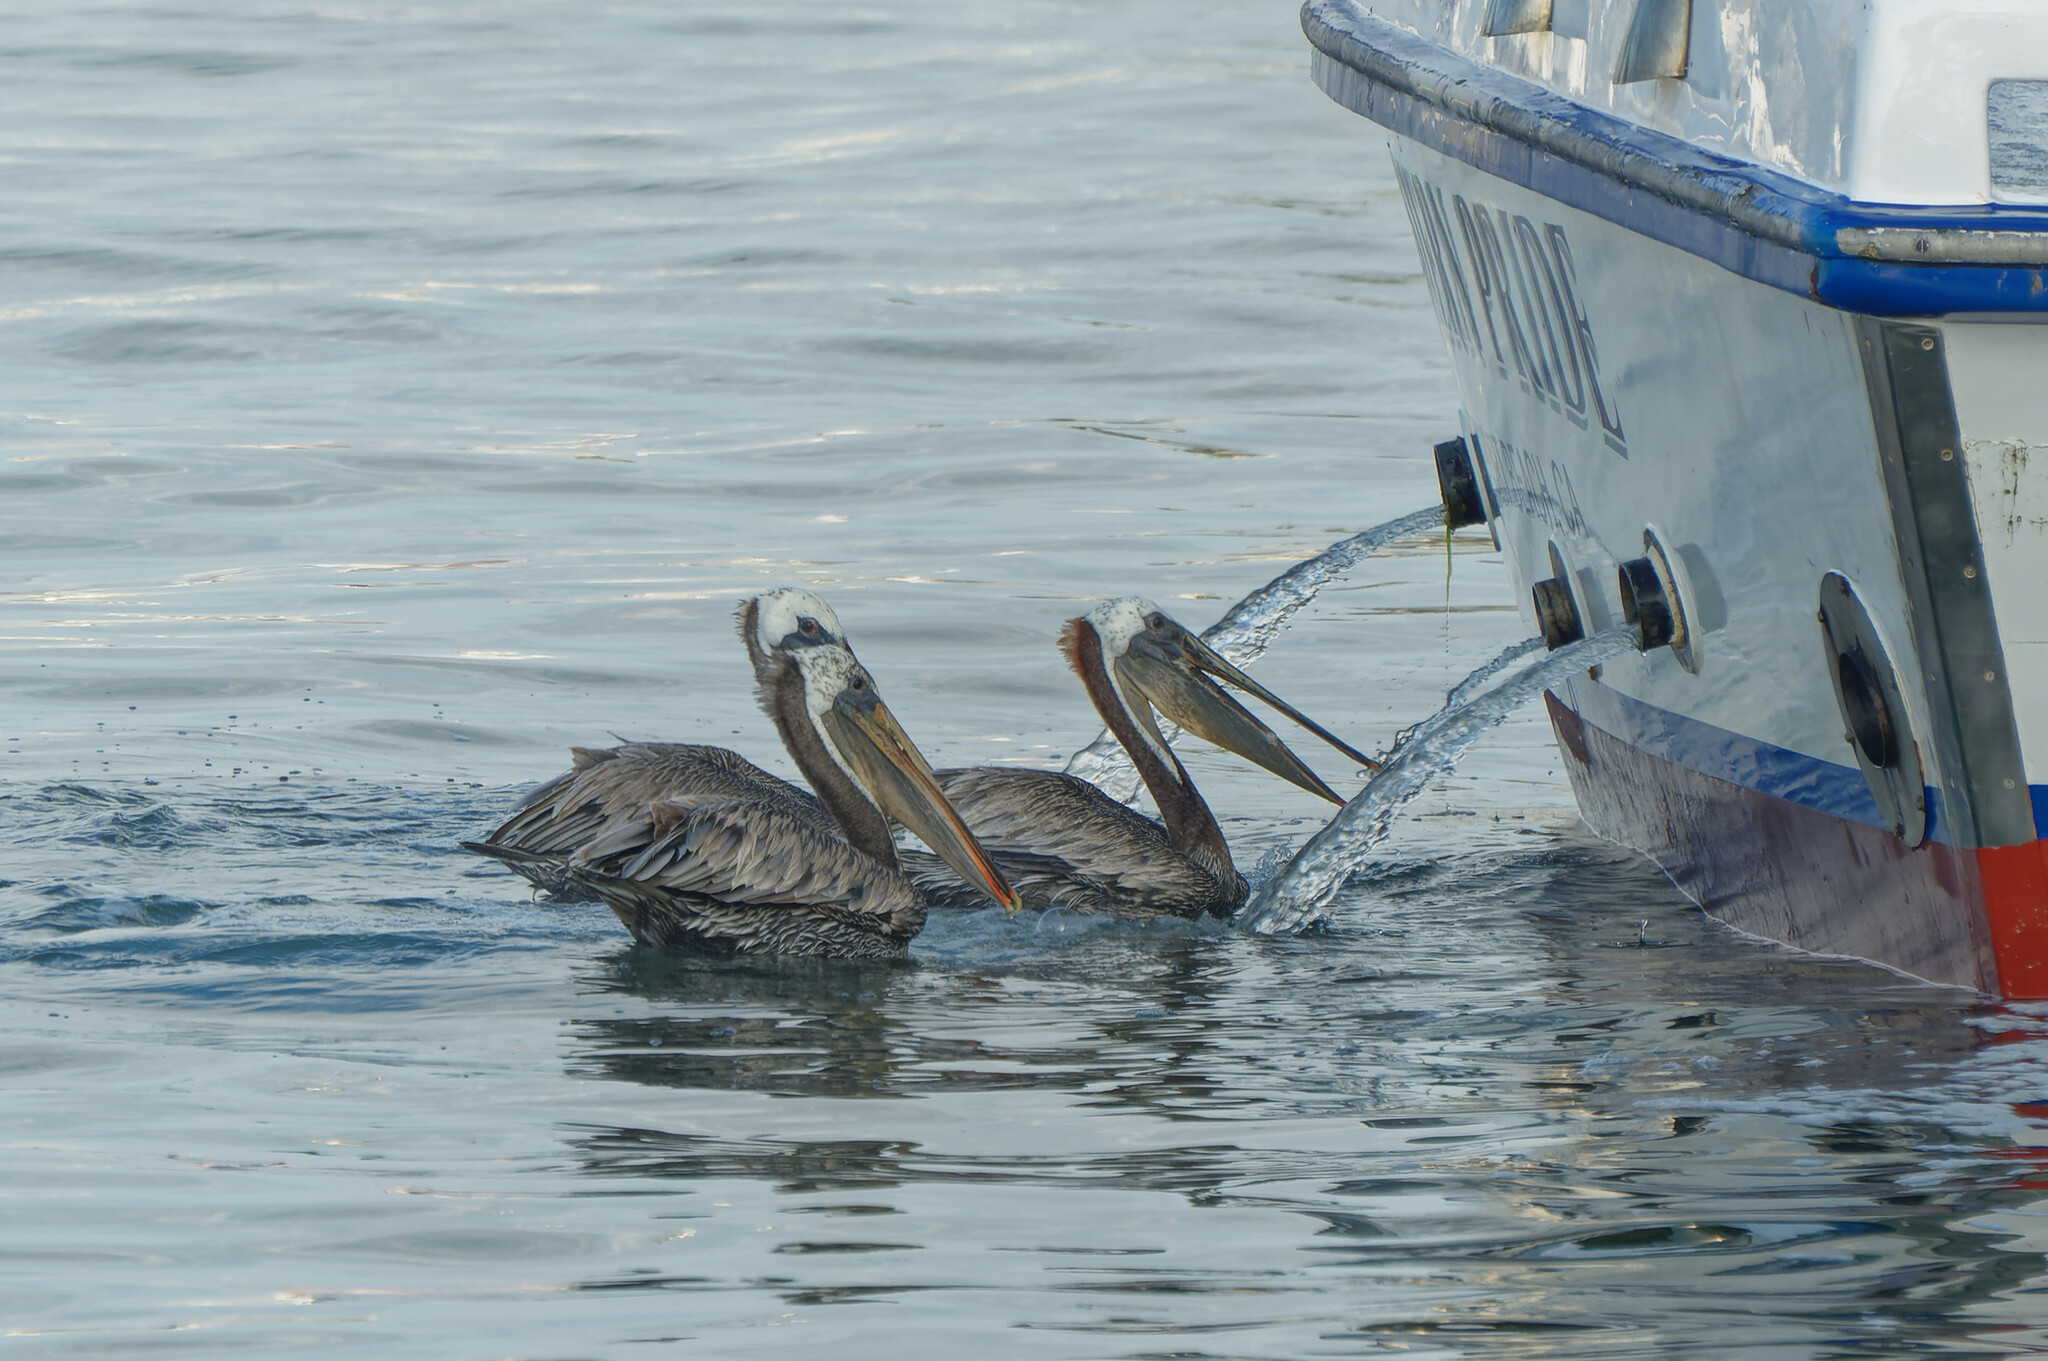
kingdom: Animalia
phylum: Chordata
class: Aves
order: Pelecaniformes
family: Pelecanidae
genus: Pelecanus
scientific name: Pelecanus occidentalis
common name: Brown pelican
